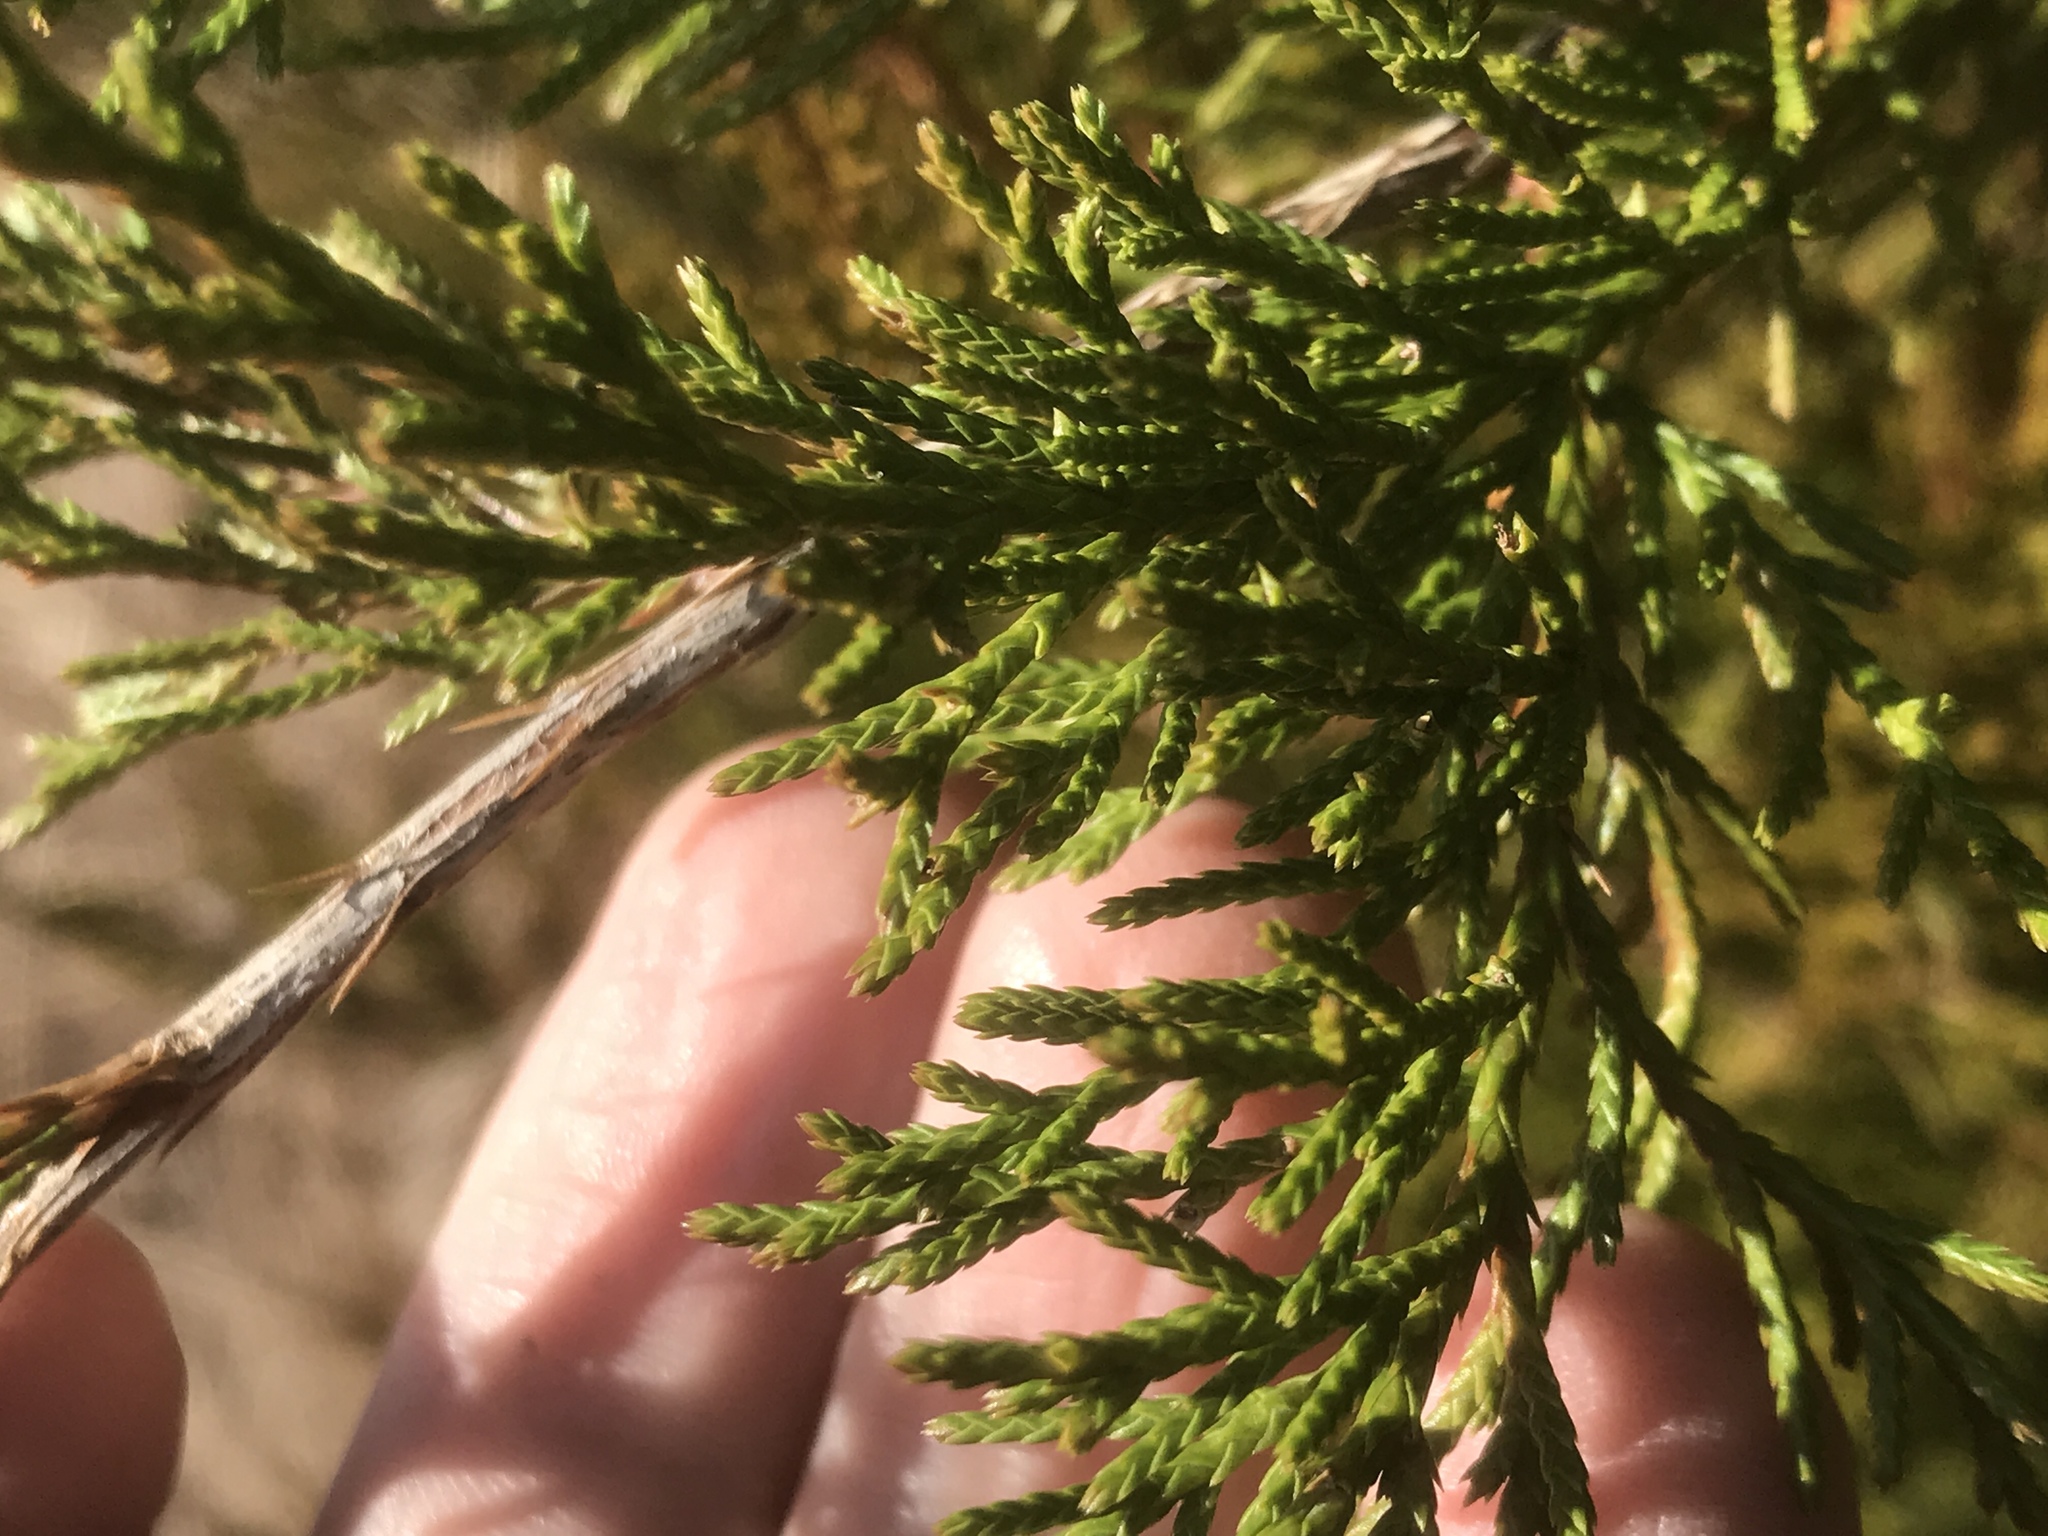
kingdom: Plantae
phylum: Tracheophyta
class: Pinopsida
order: Pinales
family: Cupressaceae
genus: Juniperus
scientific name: Juniperus virginiana
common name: Red juniper
